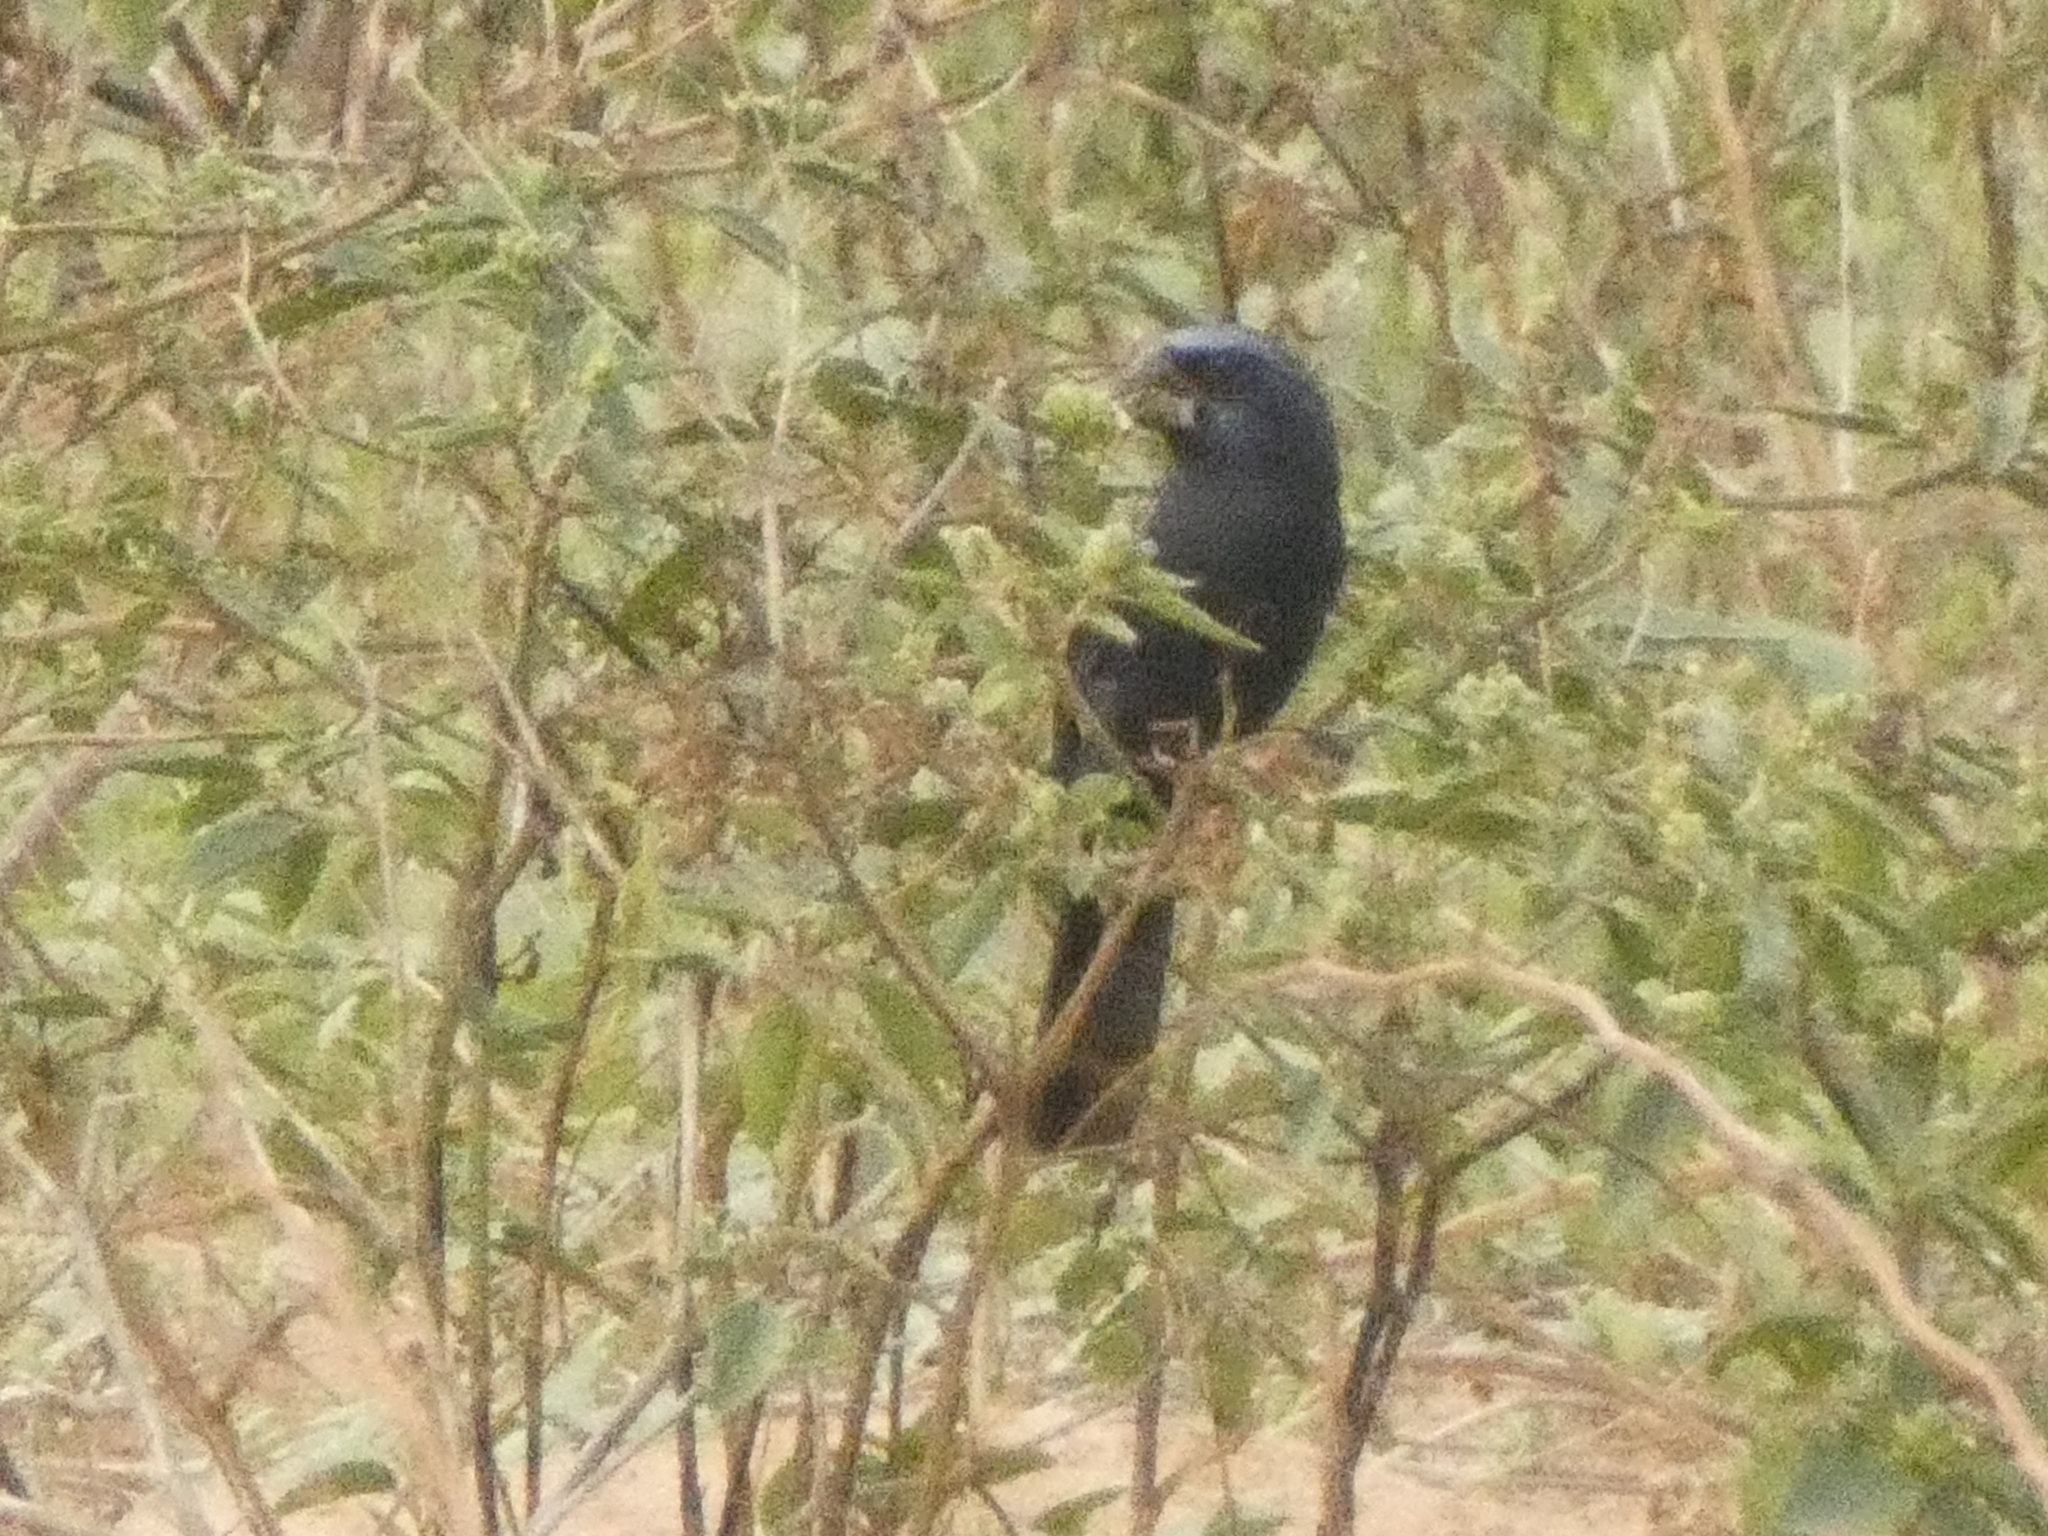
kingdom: Animalia
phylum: Chordata
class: Aves
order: Passeriformes
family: Cardinalidae
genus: Cyanoloxia
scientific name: Cyanoloxia brissonii
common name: Ultramarine grosbeak
